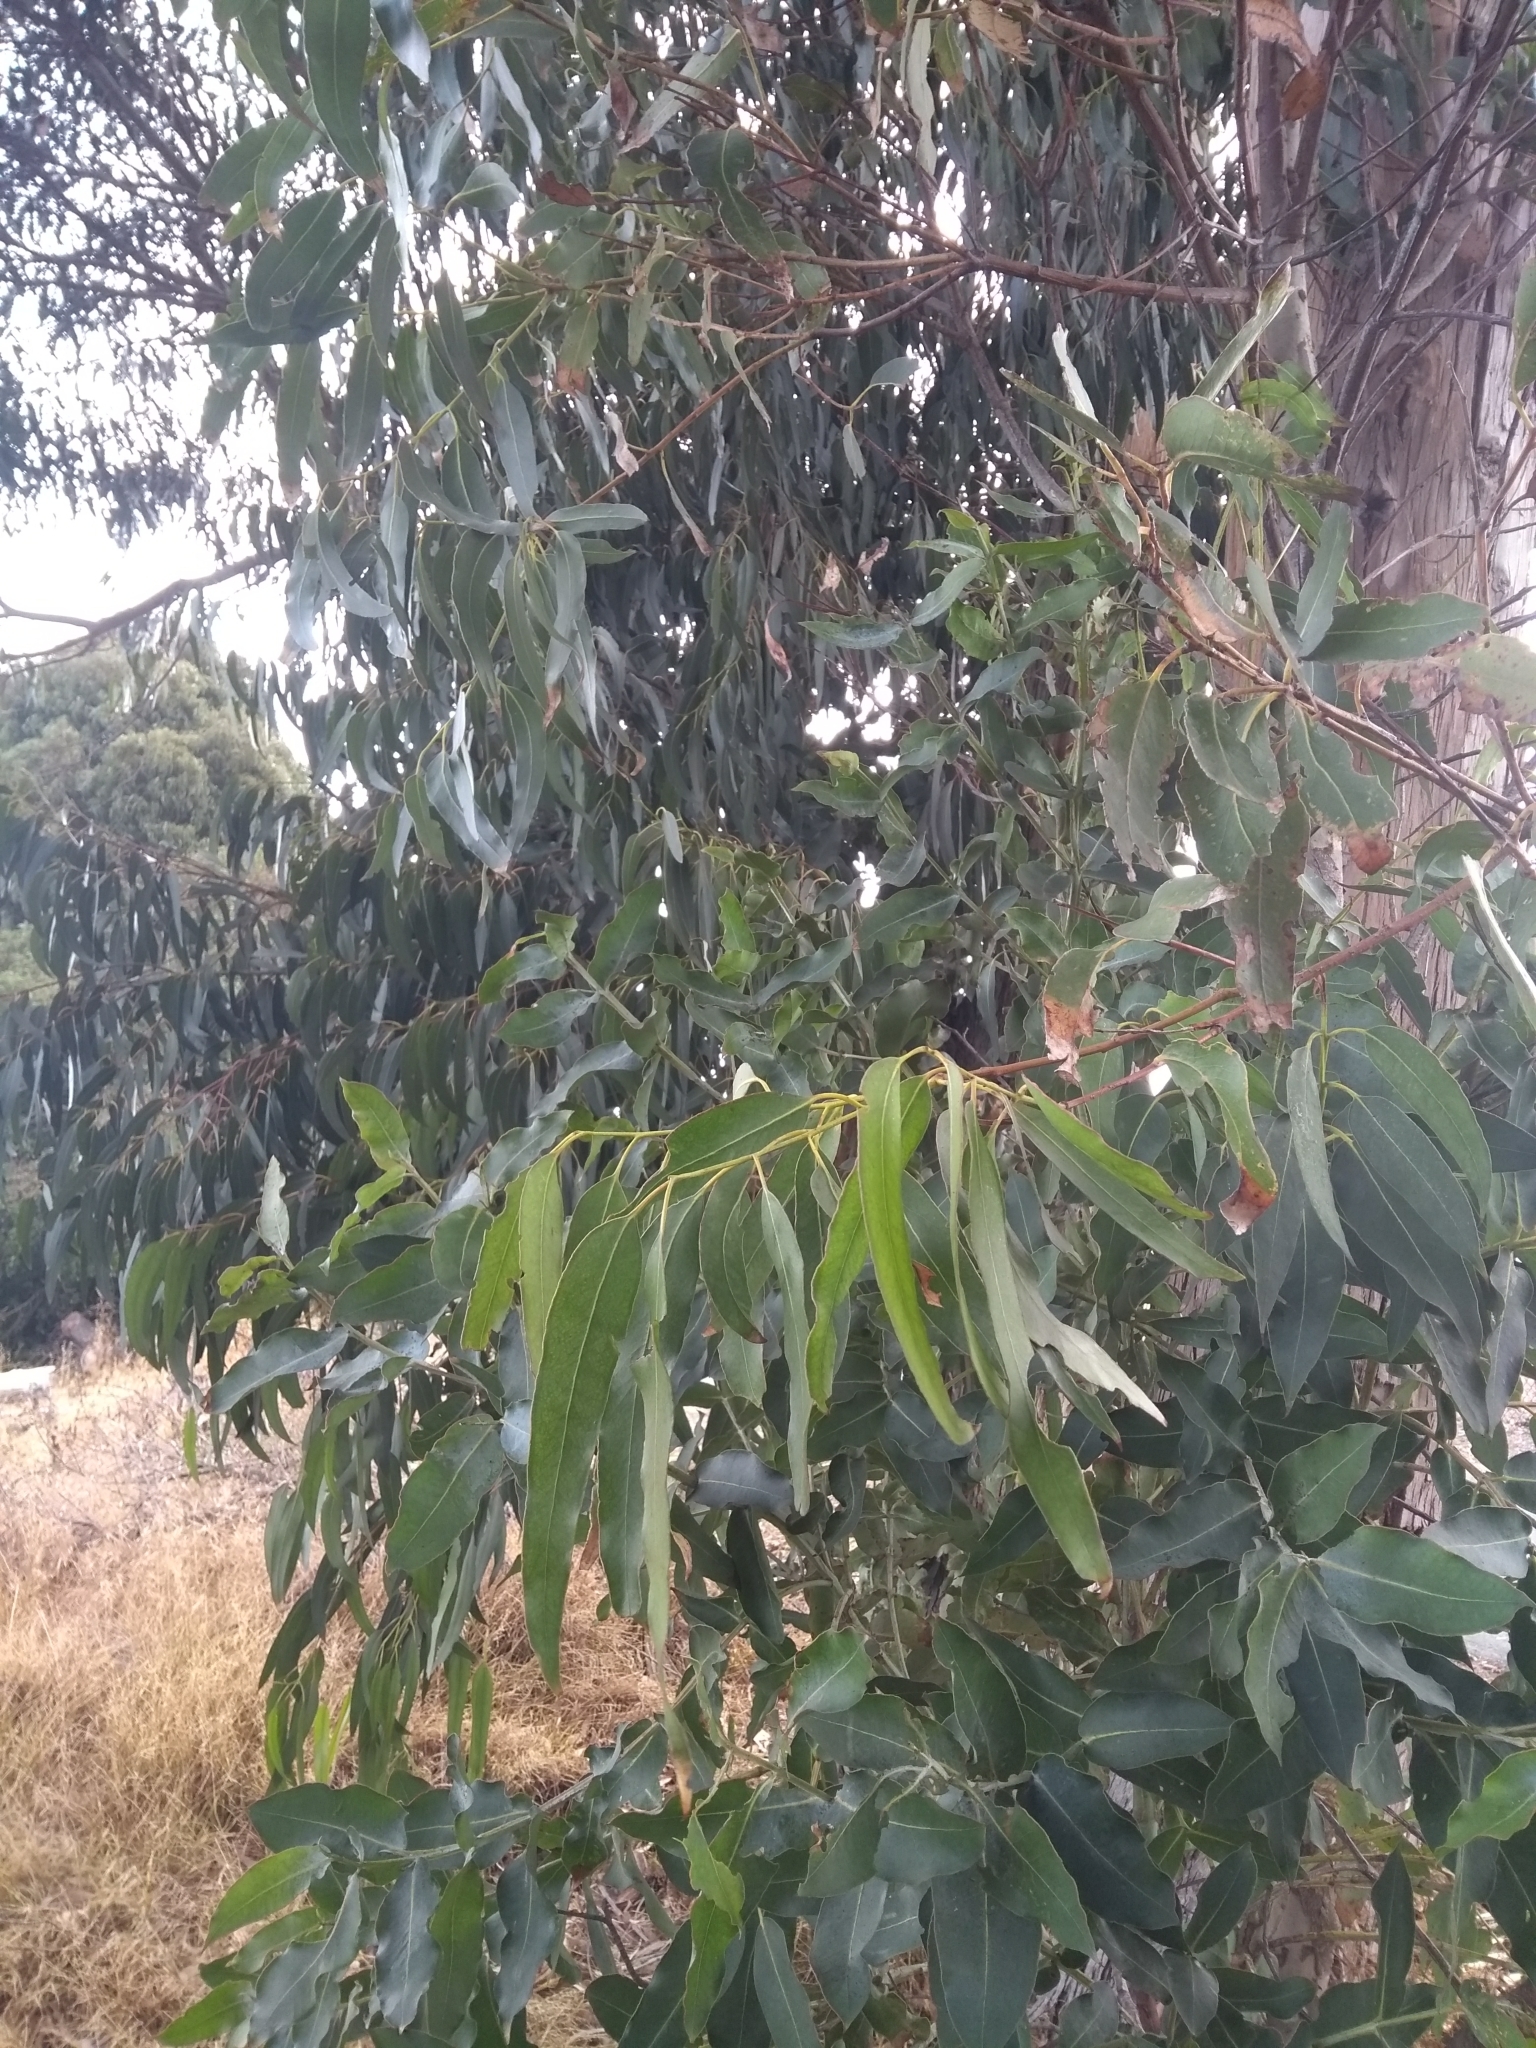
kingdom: Plantae
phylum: Tracheophyta
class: Magnoliopsida
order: Myrtales
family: Myrtaceae
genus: Eucalyptus
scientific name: Eucalyptus globulus
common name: Southern blue-gum
